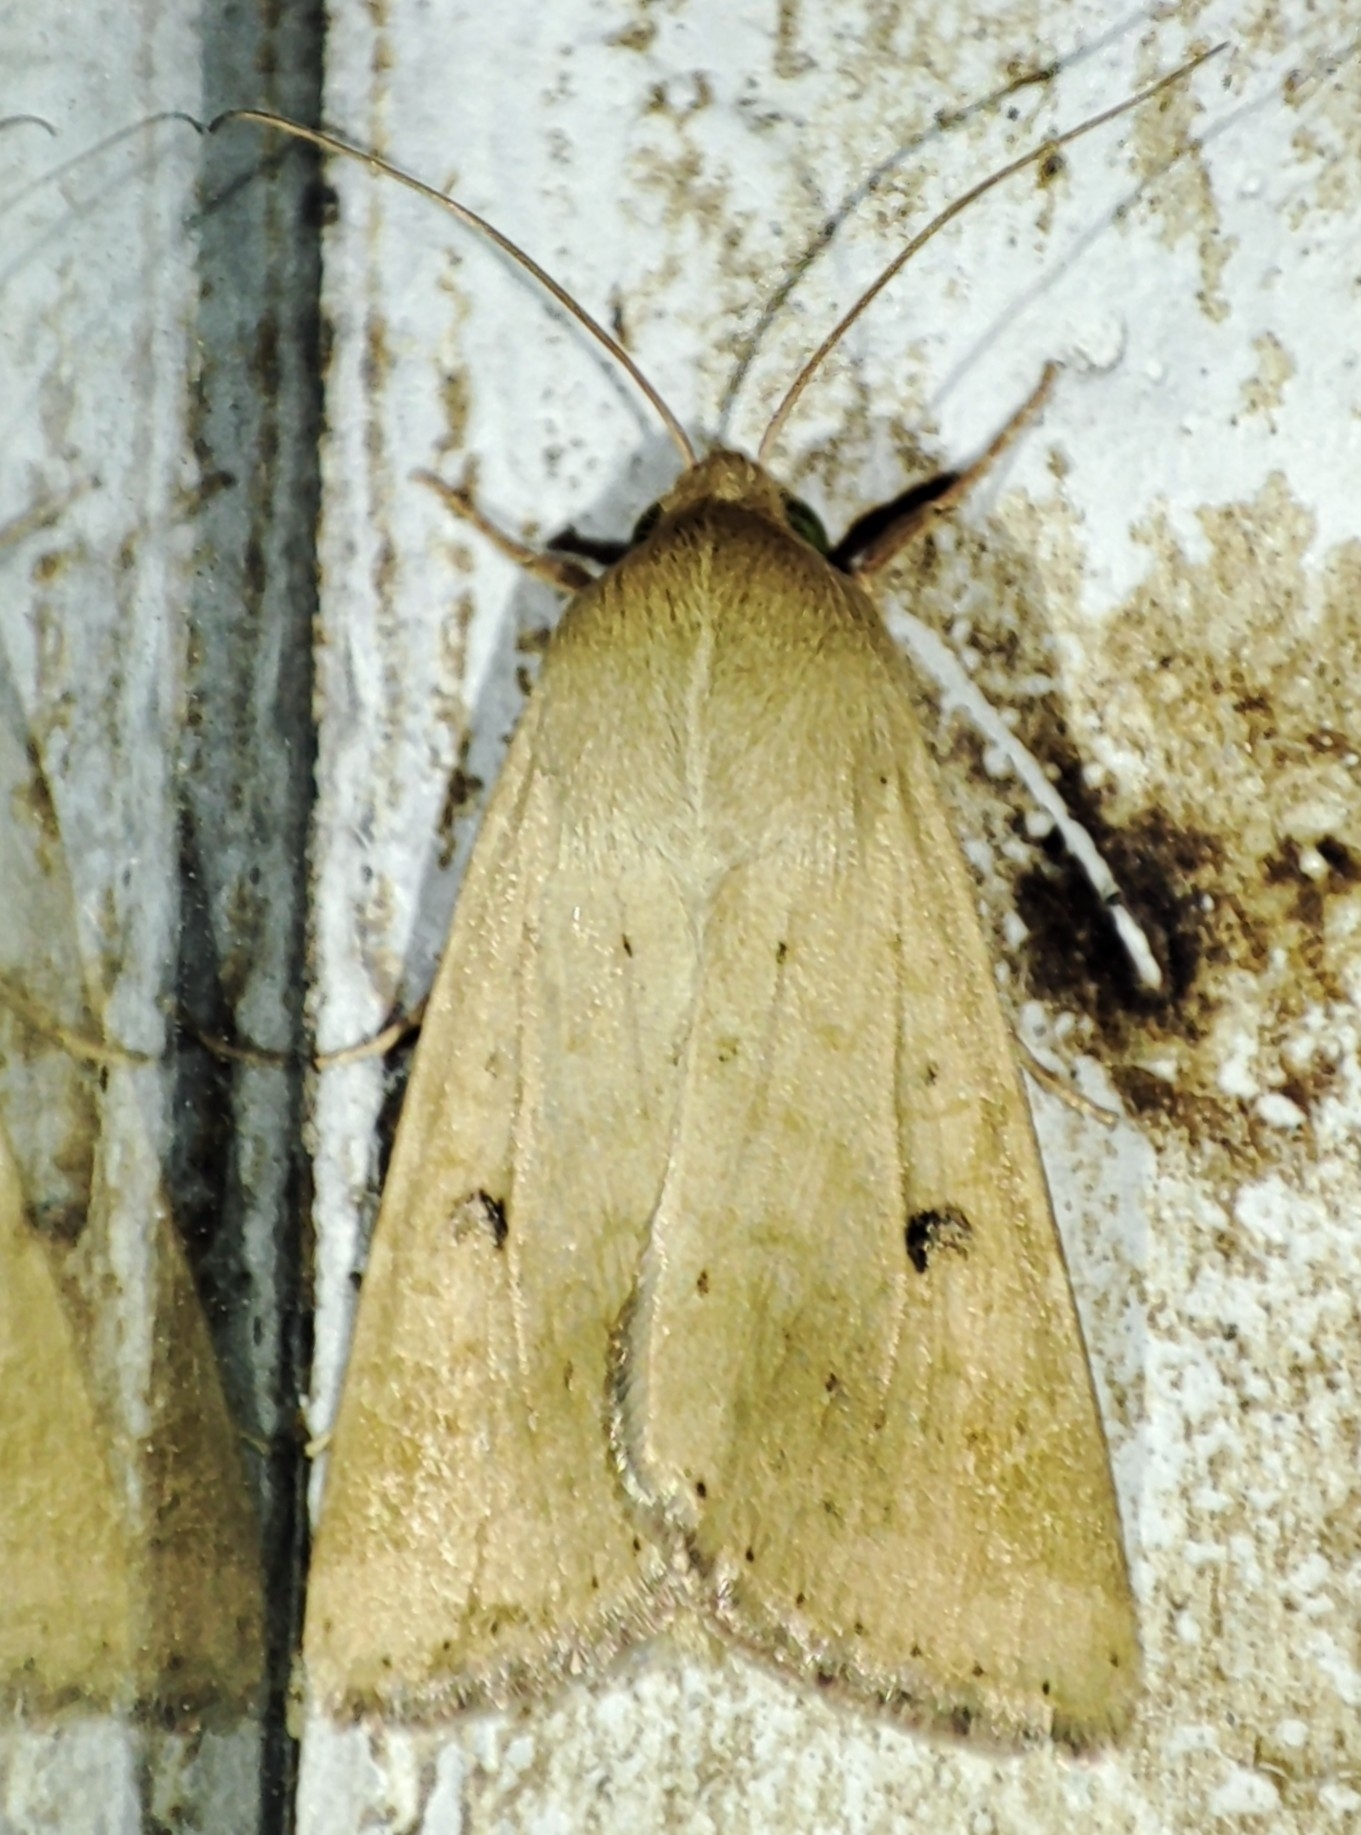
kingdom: Animalia
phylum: Arthropoda
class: Insecta
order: Lepidoptera
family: Noctuidae
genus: Helicoverpa
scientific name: Helicoverpa armigera
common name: Cotton bollworm
